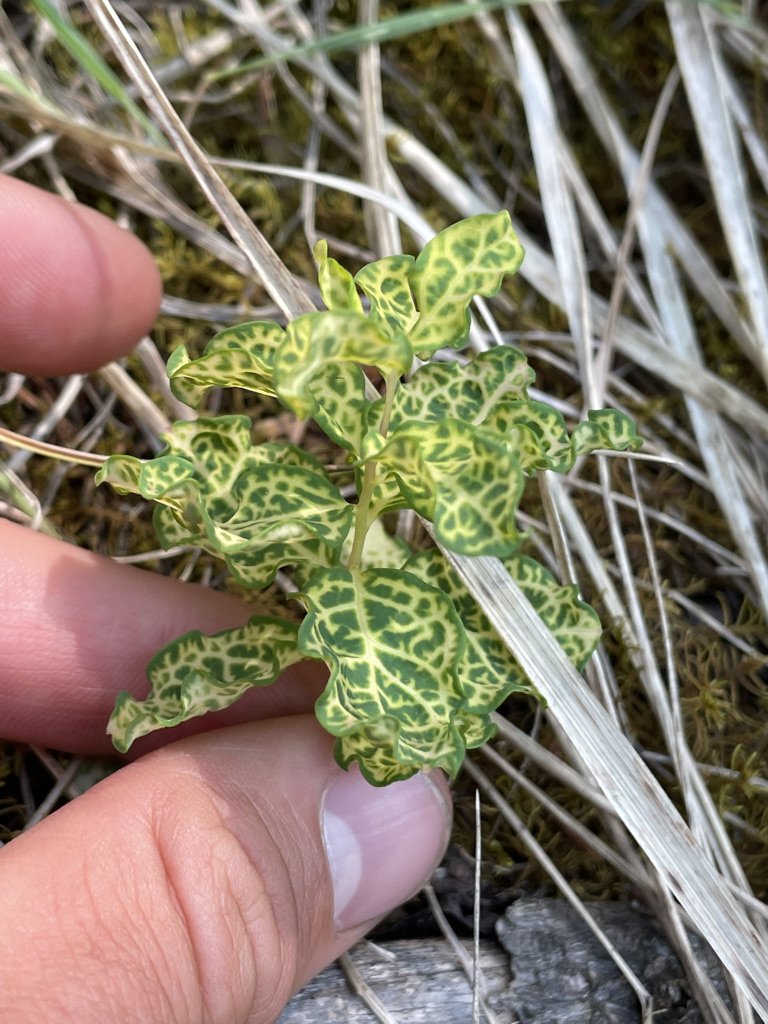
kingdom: Plantae
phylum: Tracheophyta
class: Magnoliopsida
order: Santalales
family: Comandraceae
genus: Geocaulon
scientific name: Geocaulon lividum
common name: Earthberry
